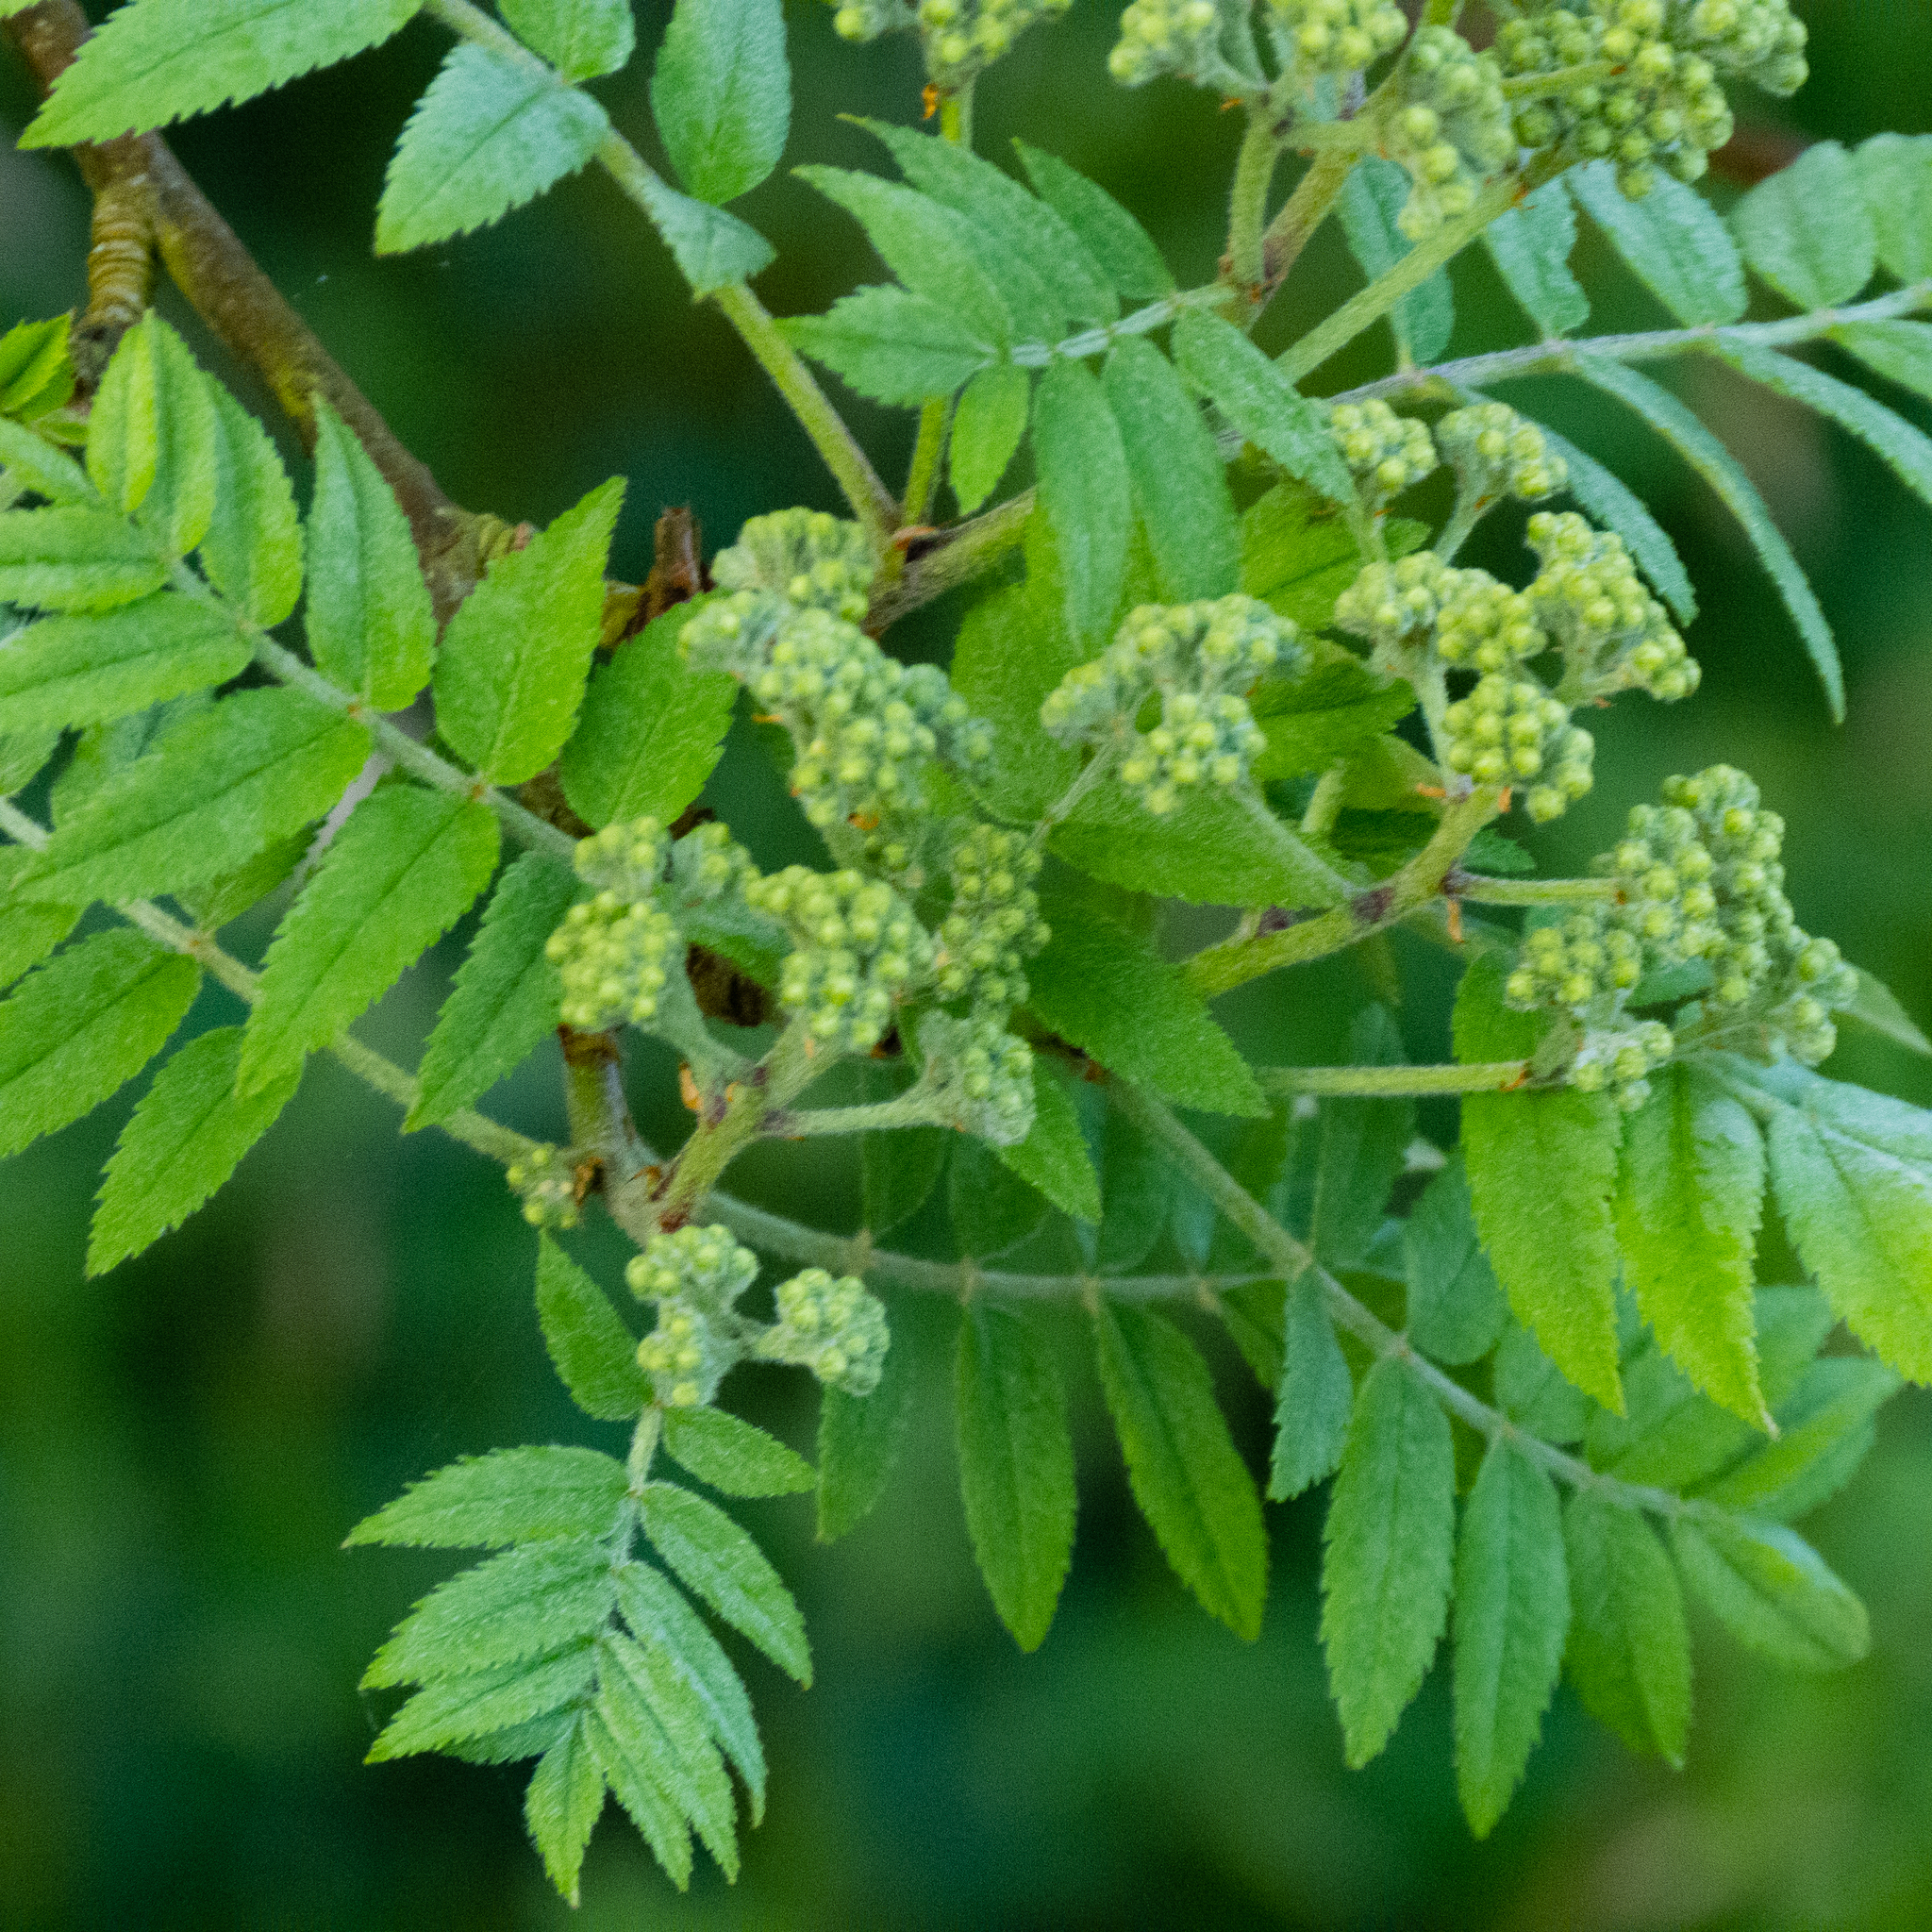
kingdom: Plantae
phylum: Tracheophyta
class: Magnoliopsida
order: Rosales
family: Rosaceae
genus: Sorbus
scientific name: Sorbus aucuparia
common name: Rowan
